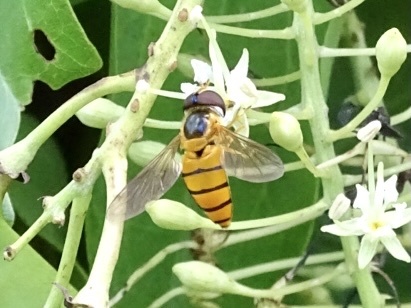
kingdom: Animalia
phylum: Arthropoda
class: Insecta
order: Diptera
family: Syrphidae
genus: Asarkina
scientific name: Asarkina porcina
